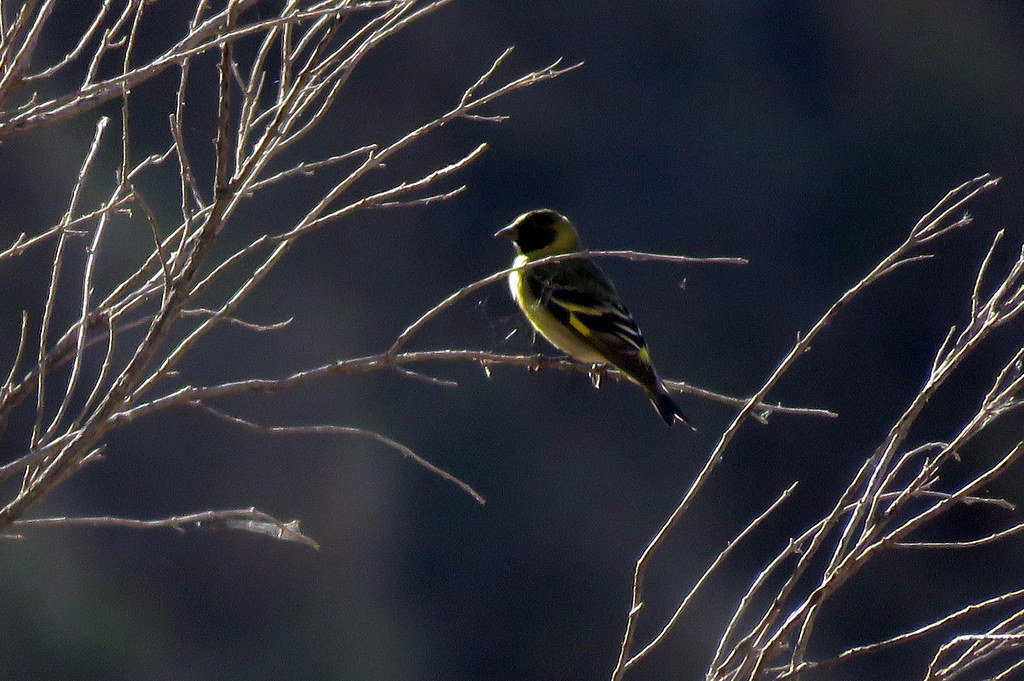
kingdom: Animalia
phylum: Chordata
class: Aves
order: Passeriformes
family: Fringillidae
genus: Spinus
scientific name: Spinus magellanicus
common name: Hooded siskin
